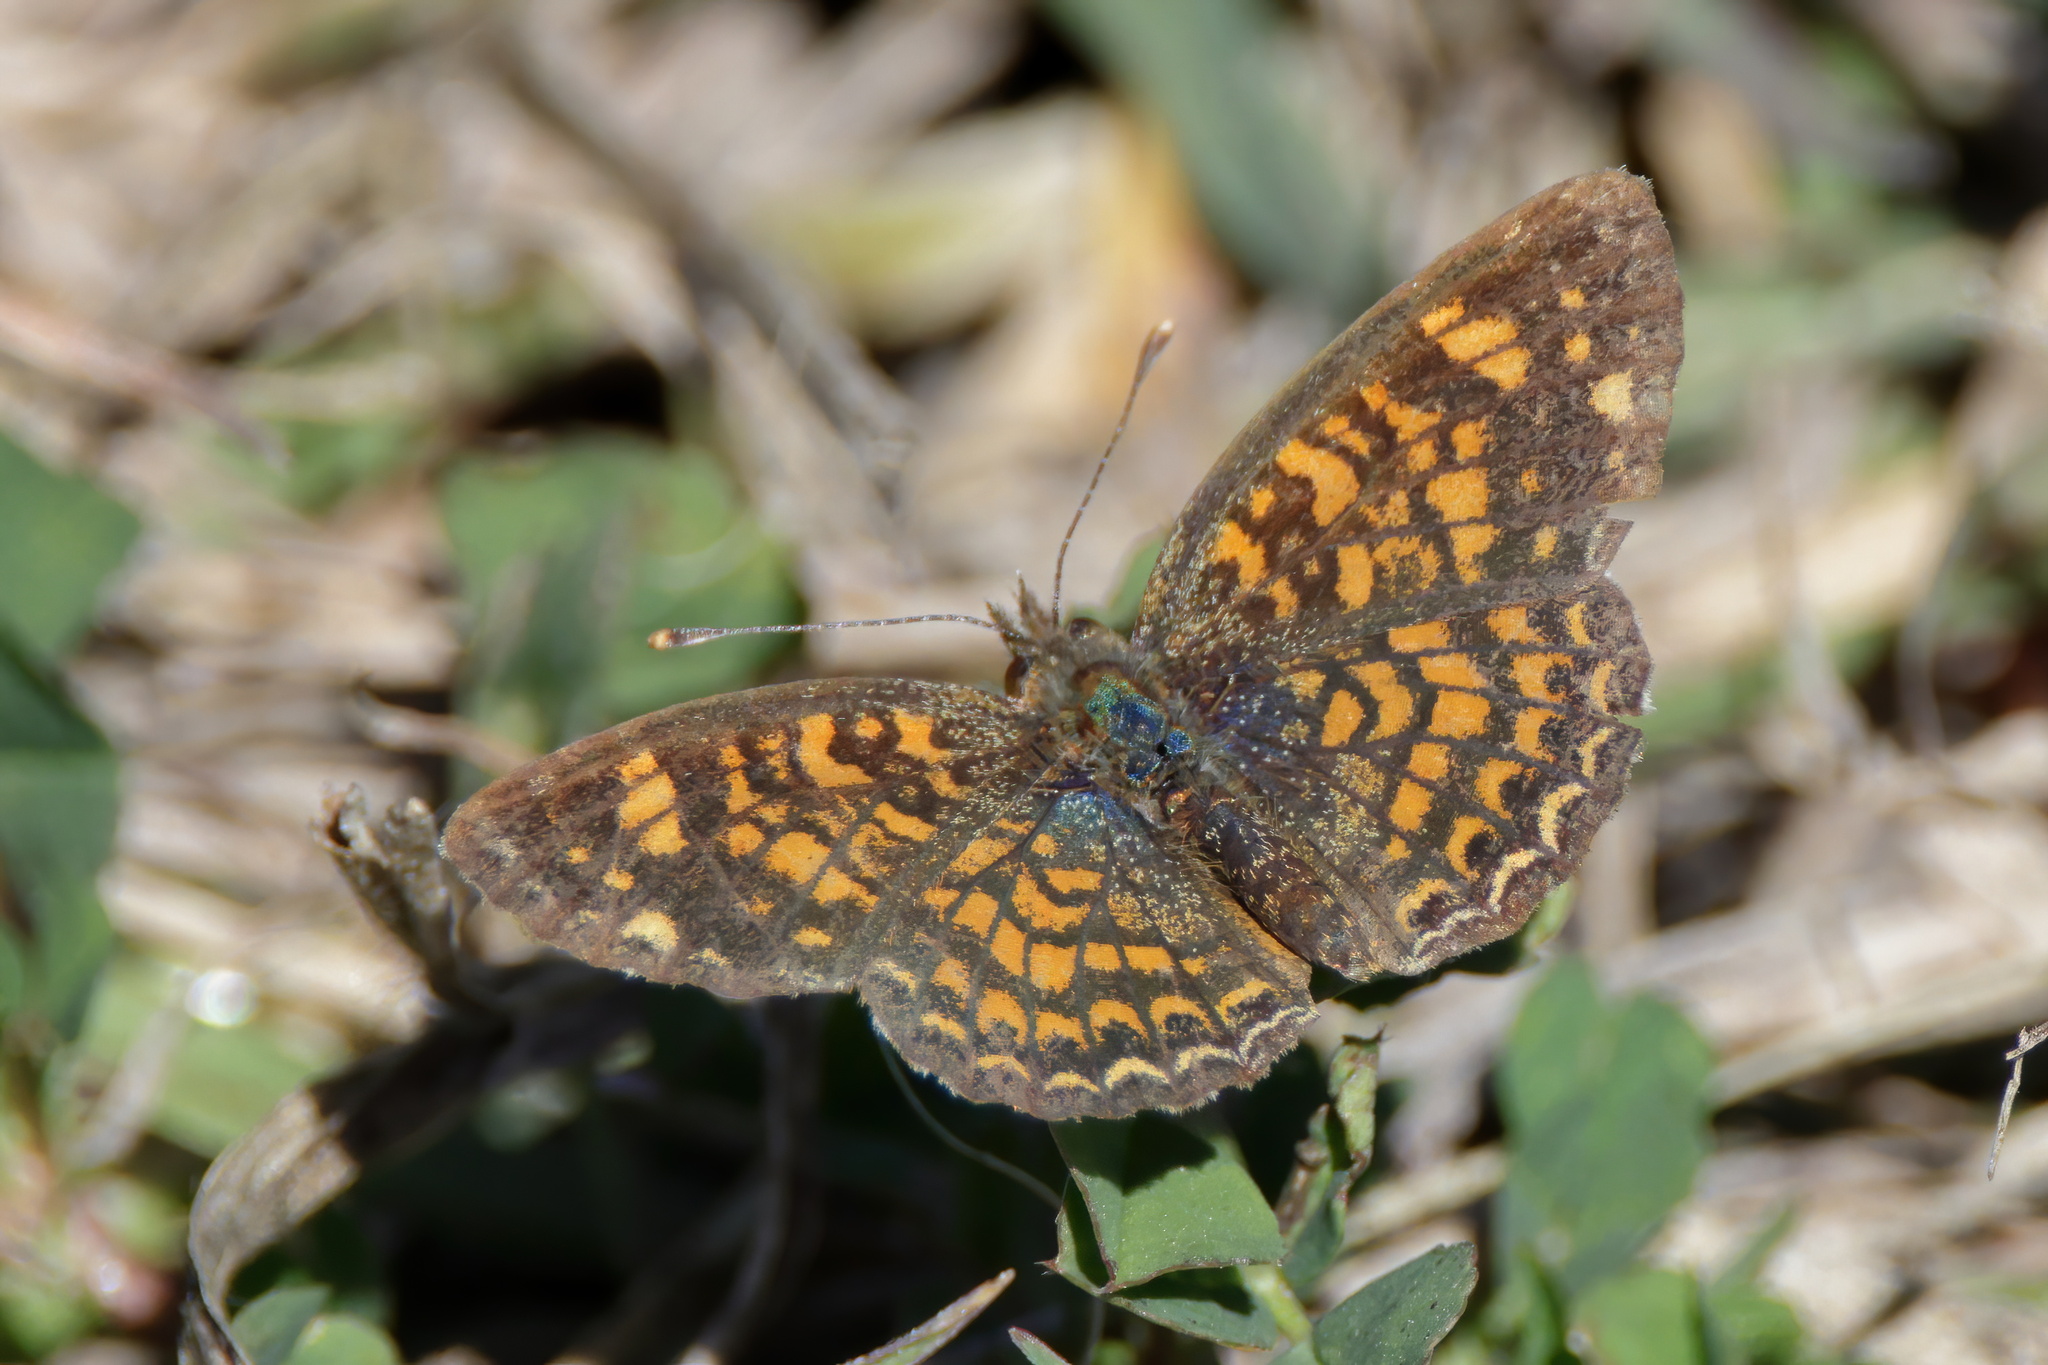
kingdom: Animalia
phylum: Arthropoda
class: Insecta
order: Lepidoptera
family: Nymphalidae
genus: Phyciodes
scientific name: Phyciodes vesta
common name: Vesta crescent
